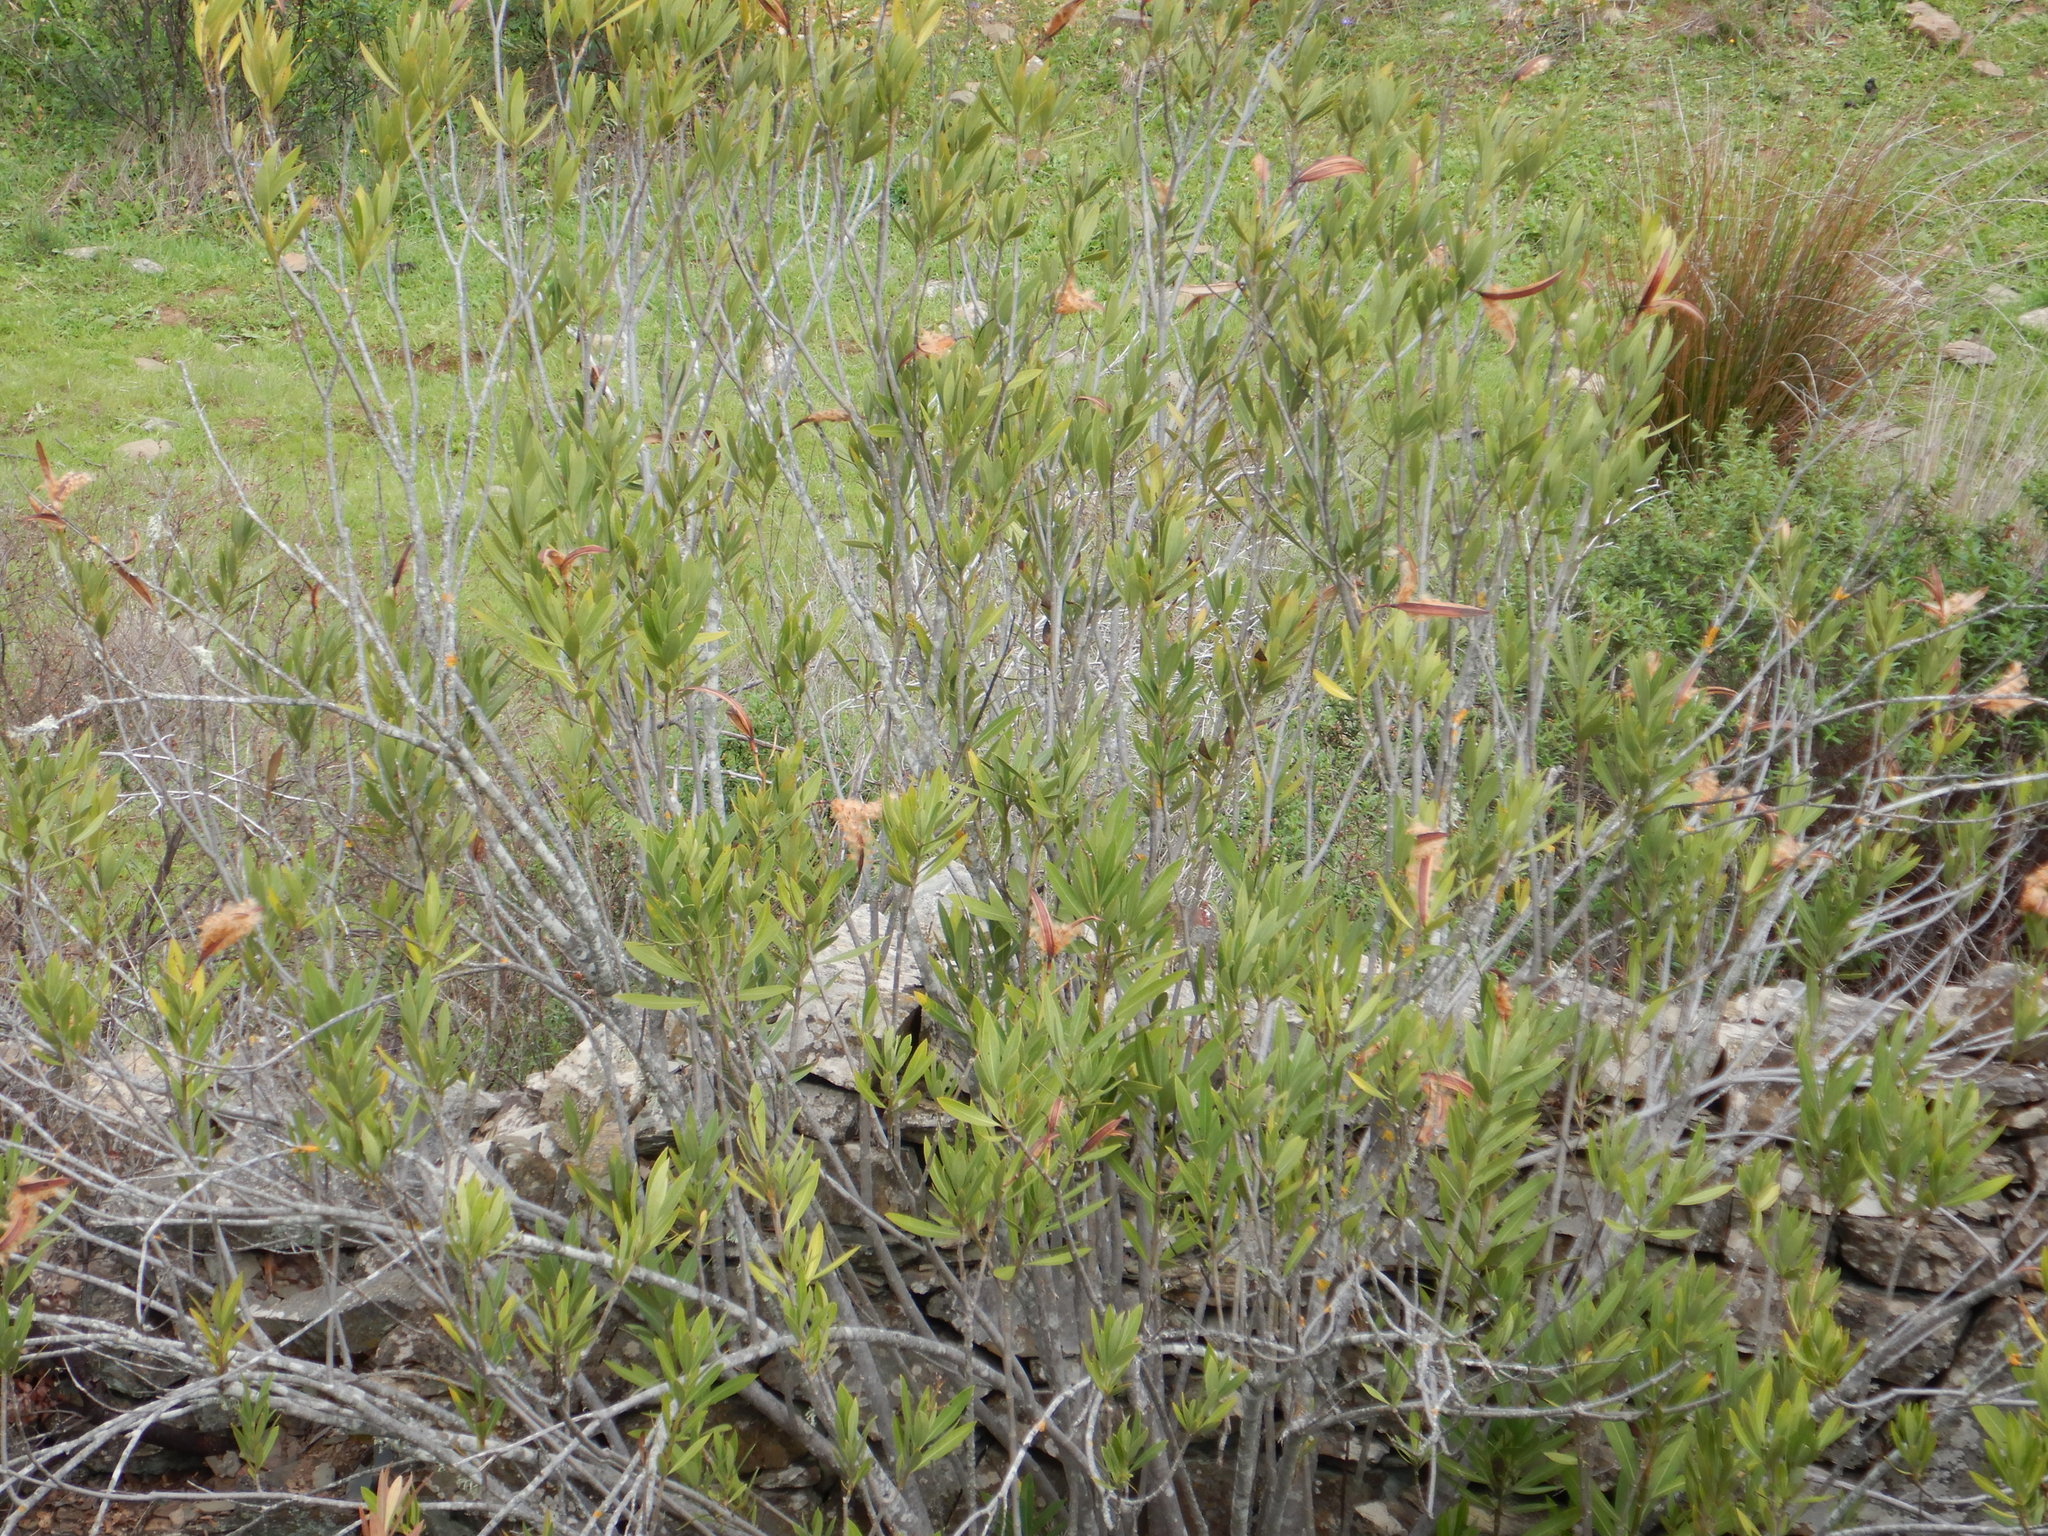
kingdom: Plantae
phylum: Tracheophyta
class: Magnoliopsida
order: Gentianales
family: Apocynaceae
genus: Nerium
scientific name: Nerium oleander
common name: Oleander
